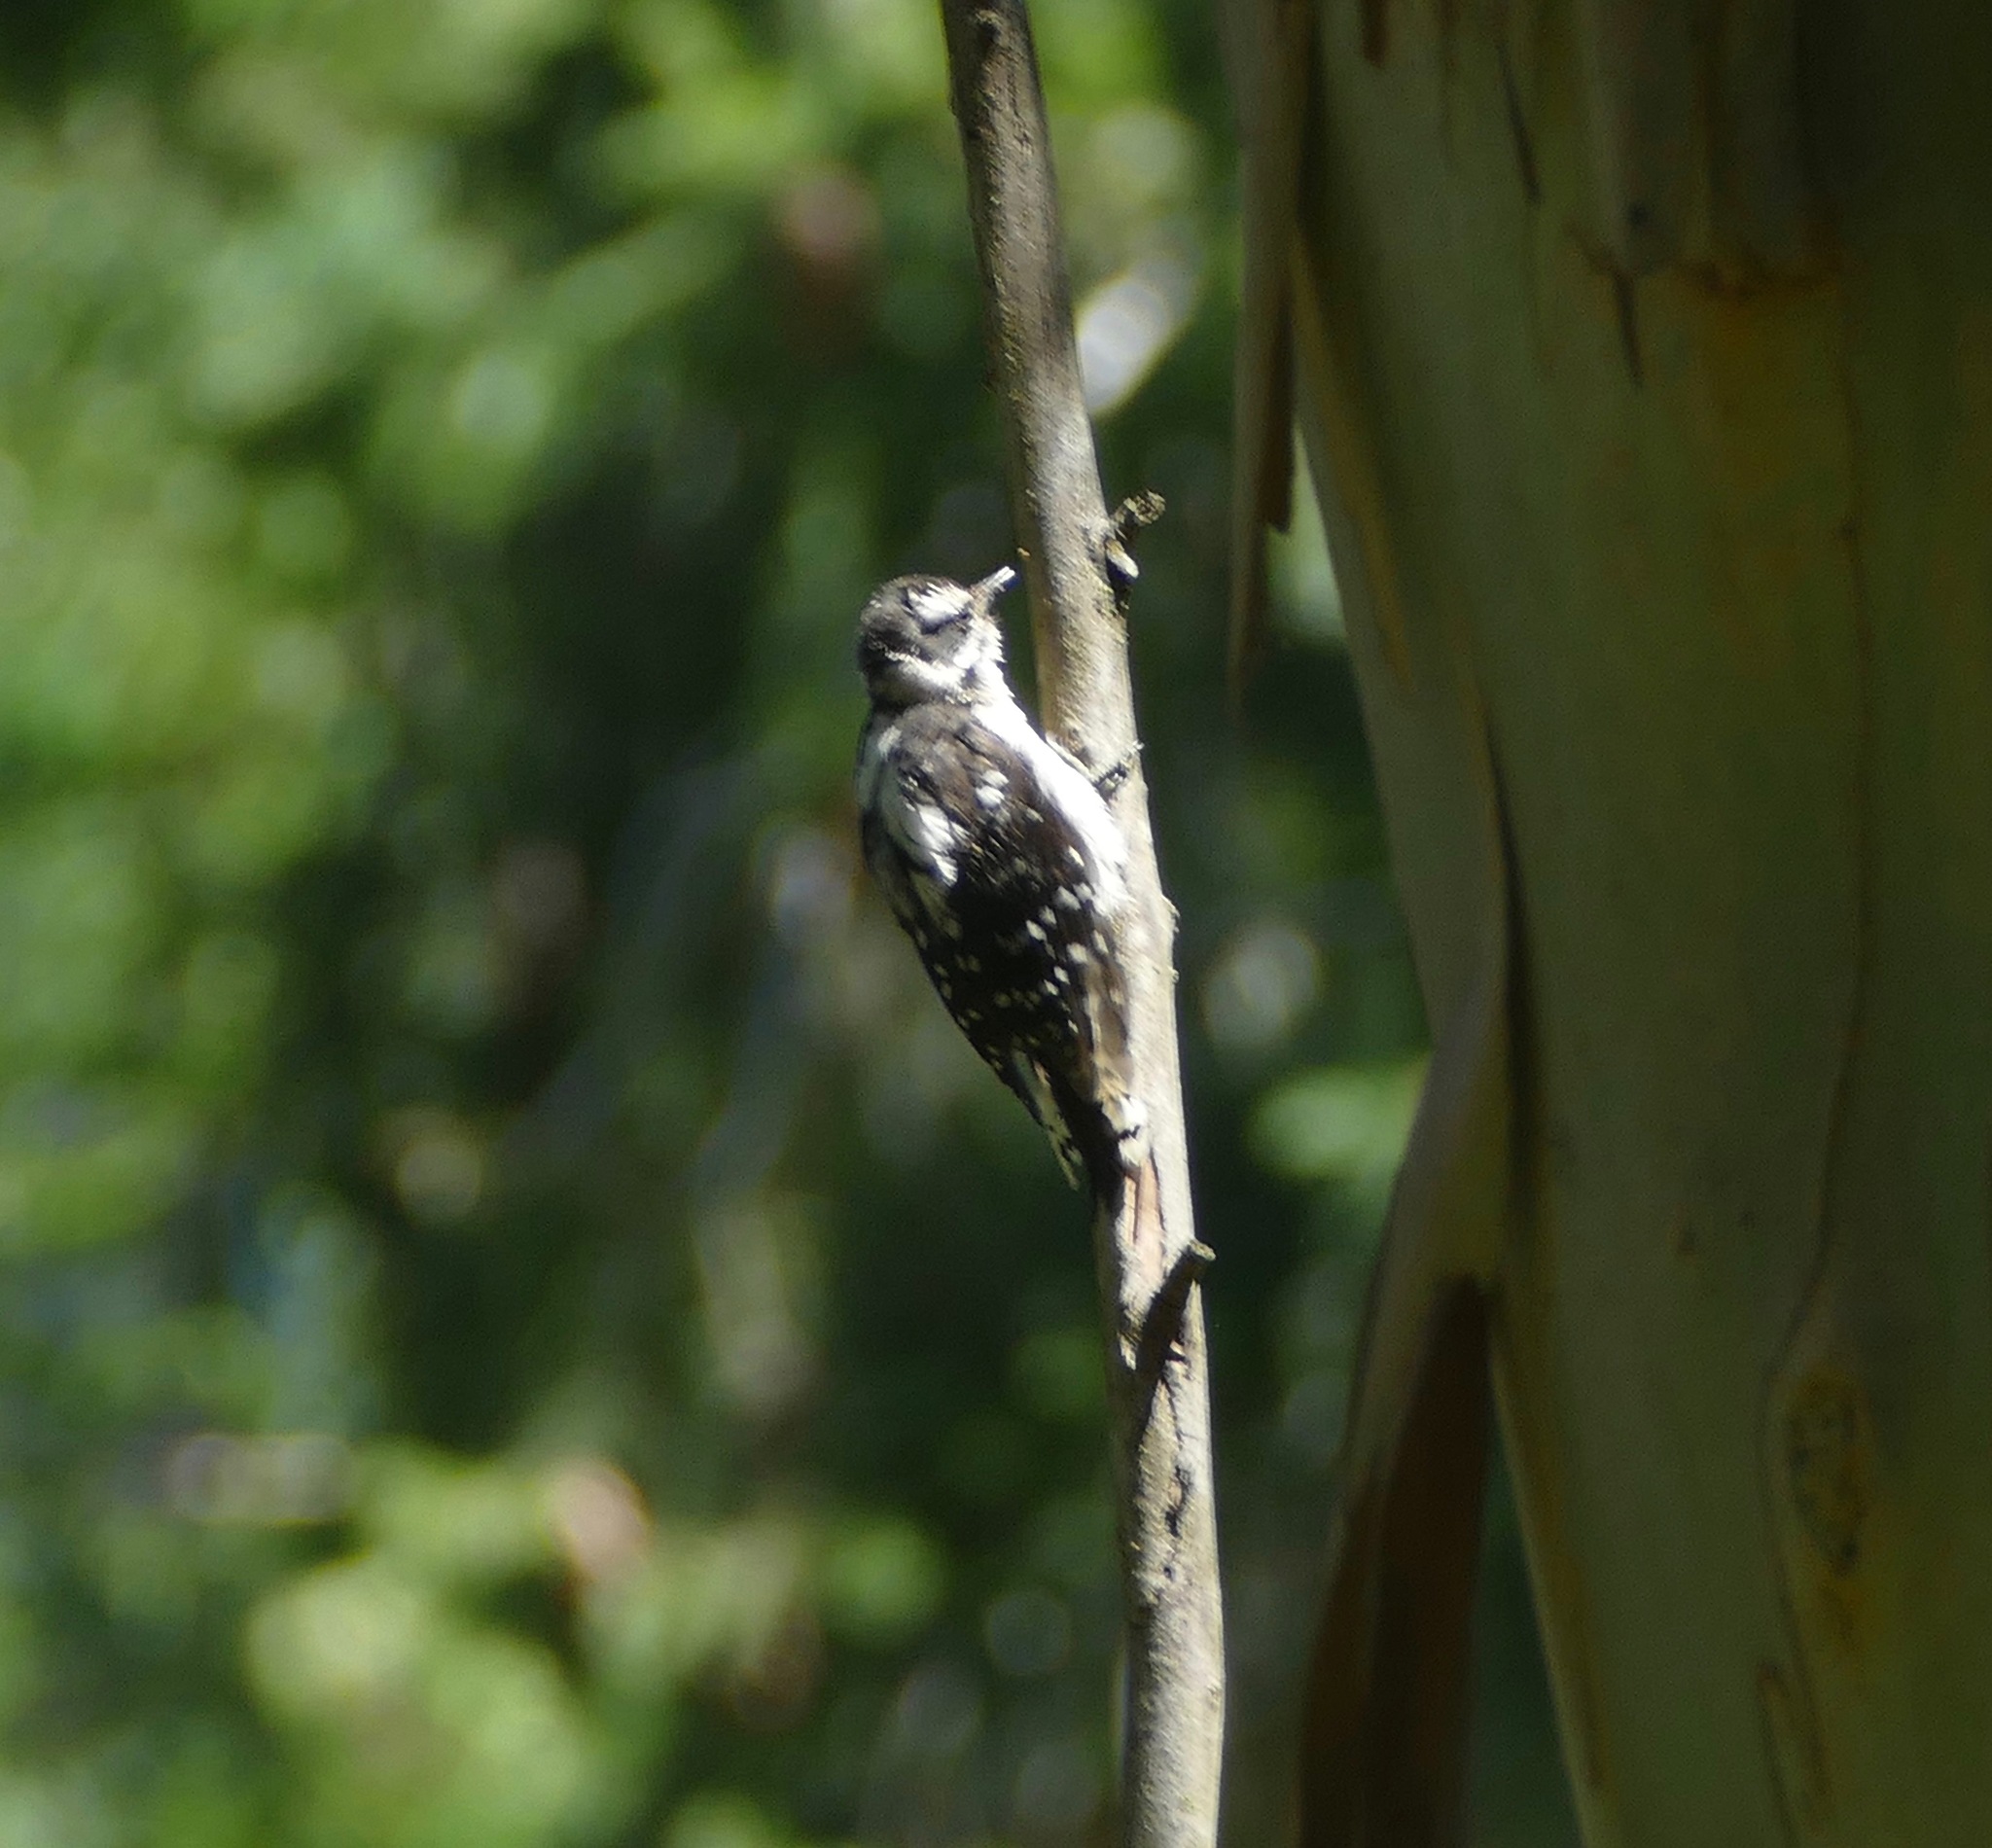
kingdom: Animalia
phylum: Chordata
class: Aves
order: Piciformes
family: Picidae
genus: Dryobates
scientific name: Dryobates pubescens
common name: Downy woodpecker
